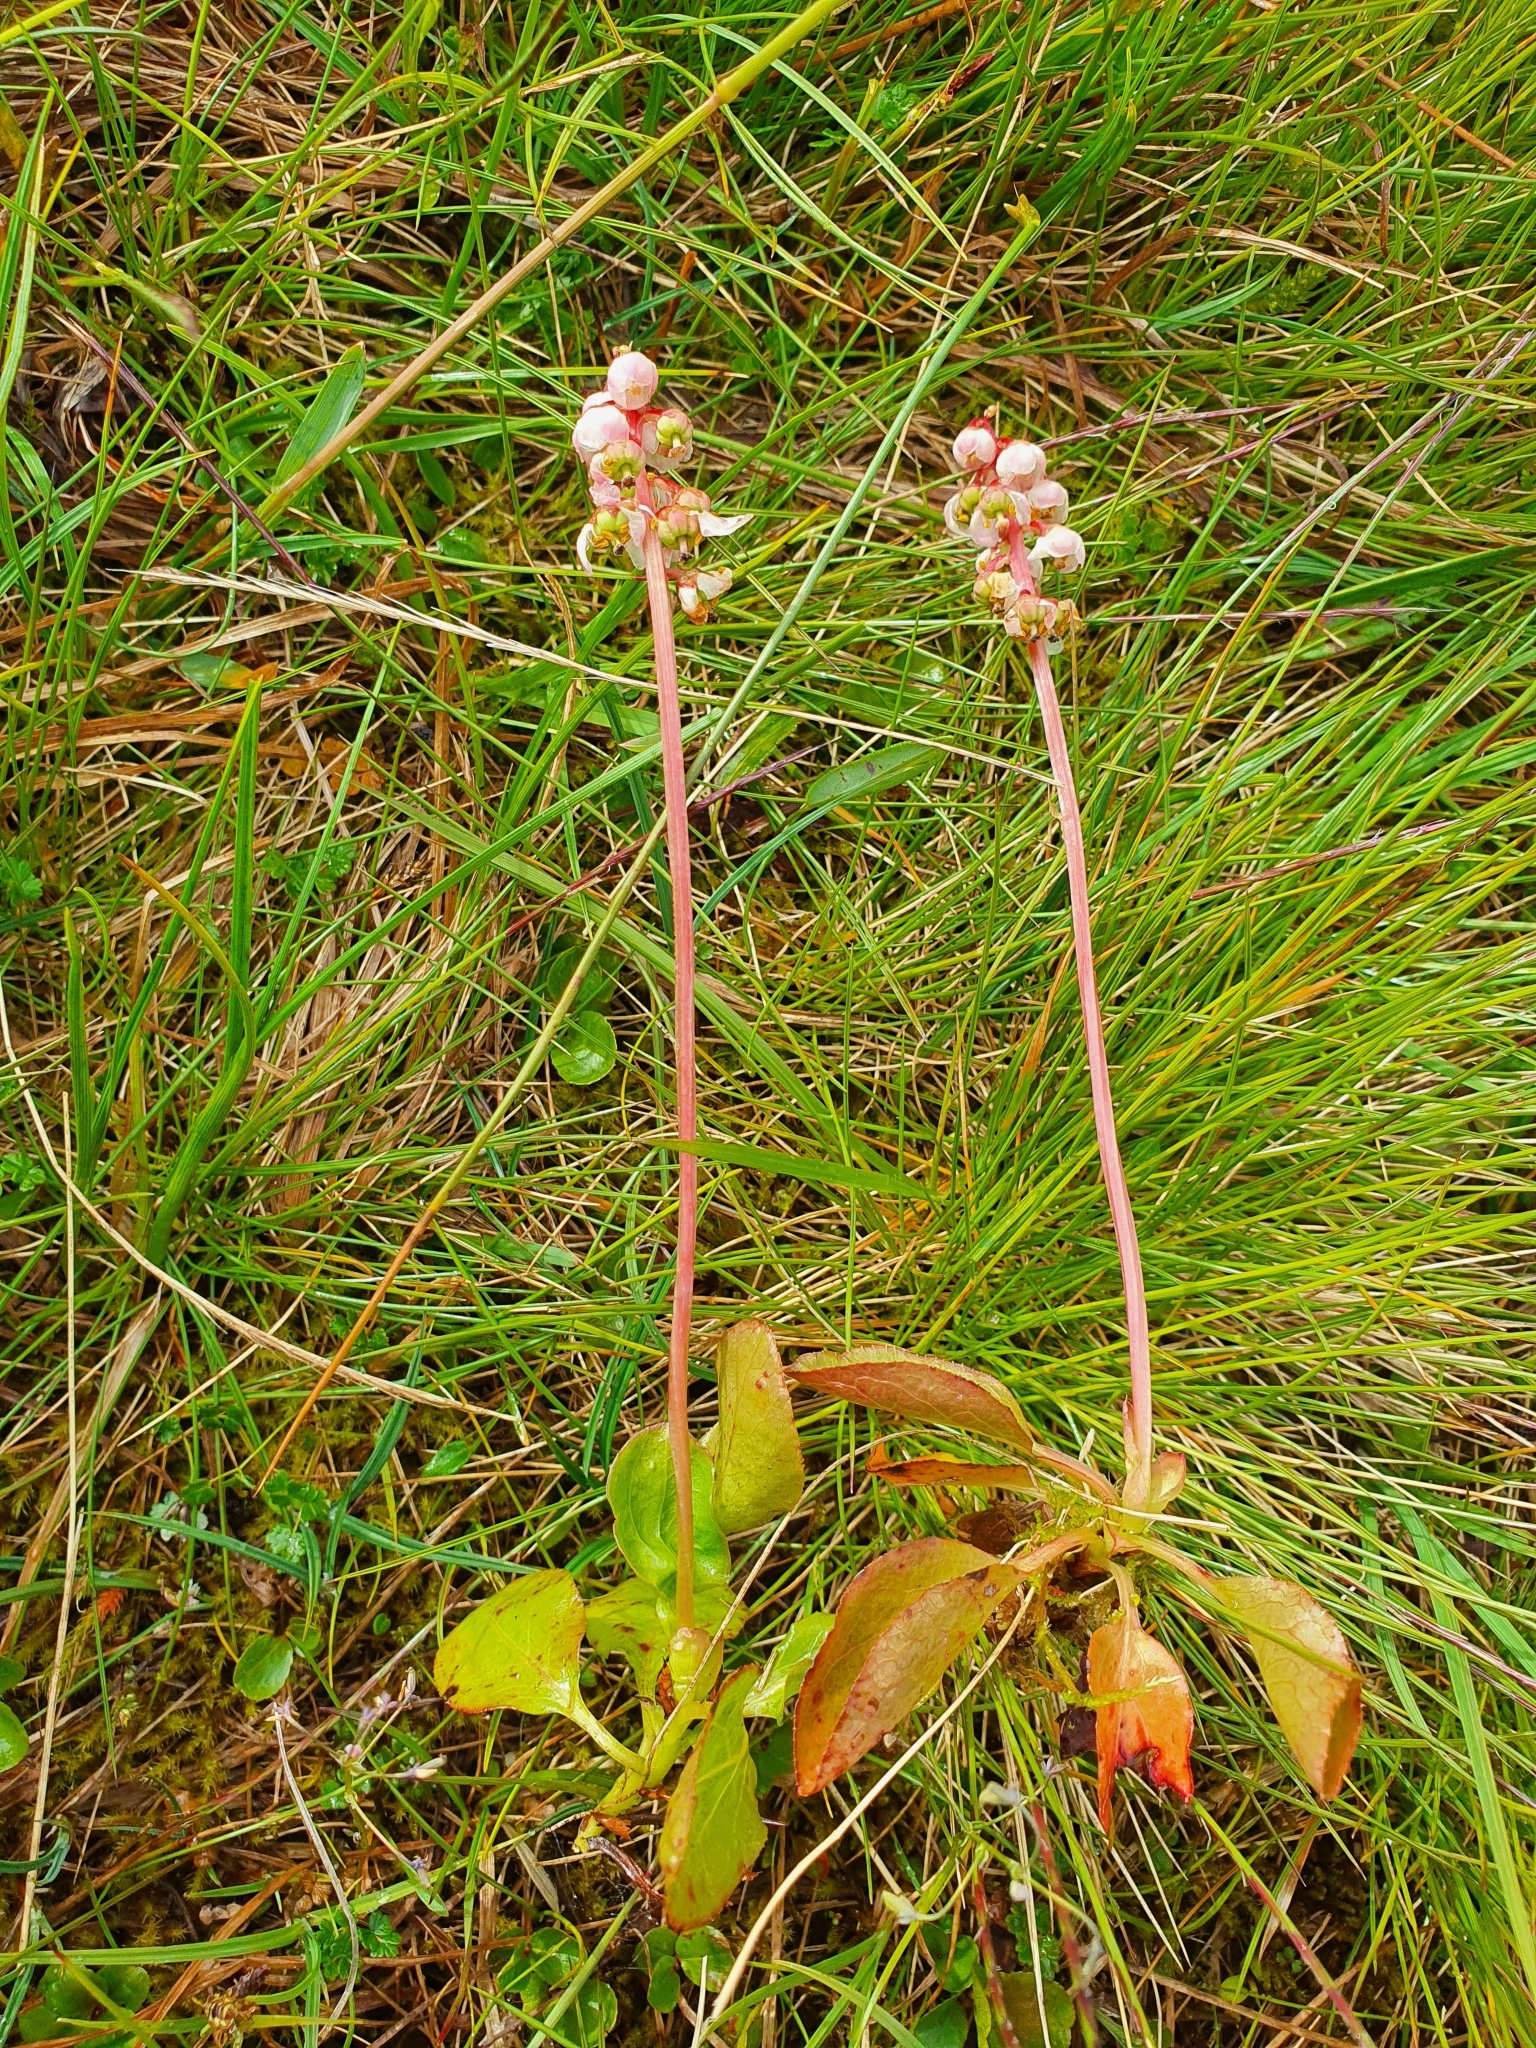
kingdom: Plantae
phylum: Tracheophyta
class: Magnoliopsida
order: Ericales
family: Ericaceae
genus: Pyrola
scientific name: Pyrola minor
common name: Common wintergreen
